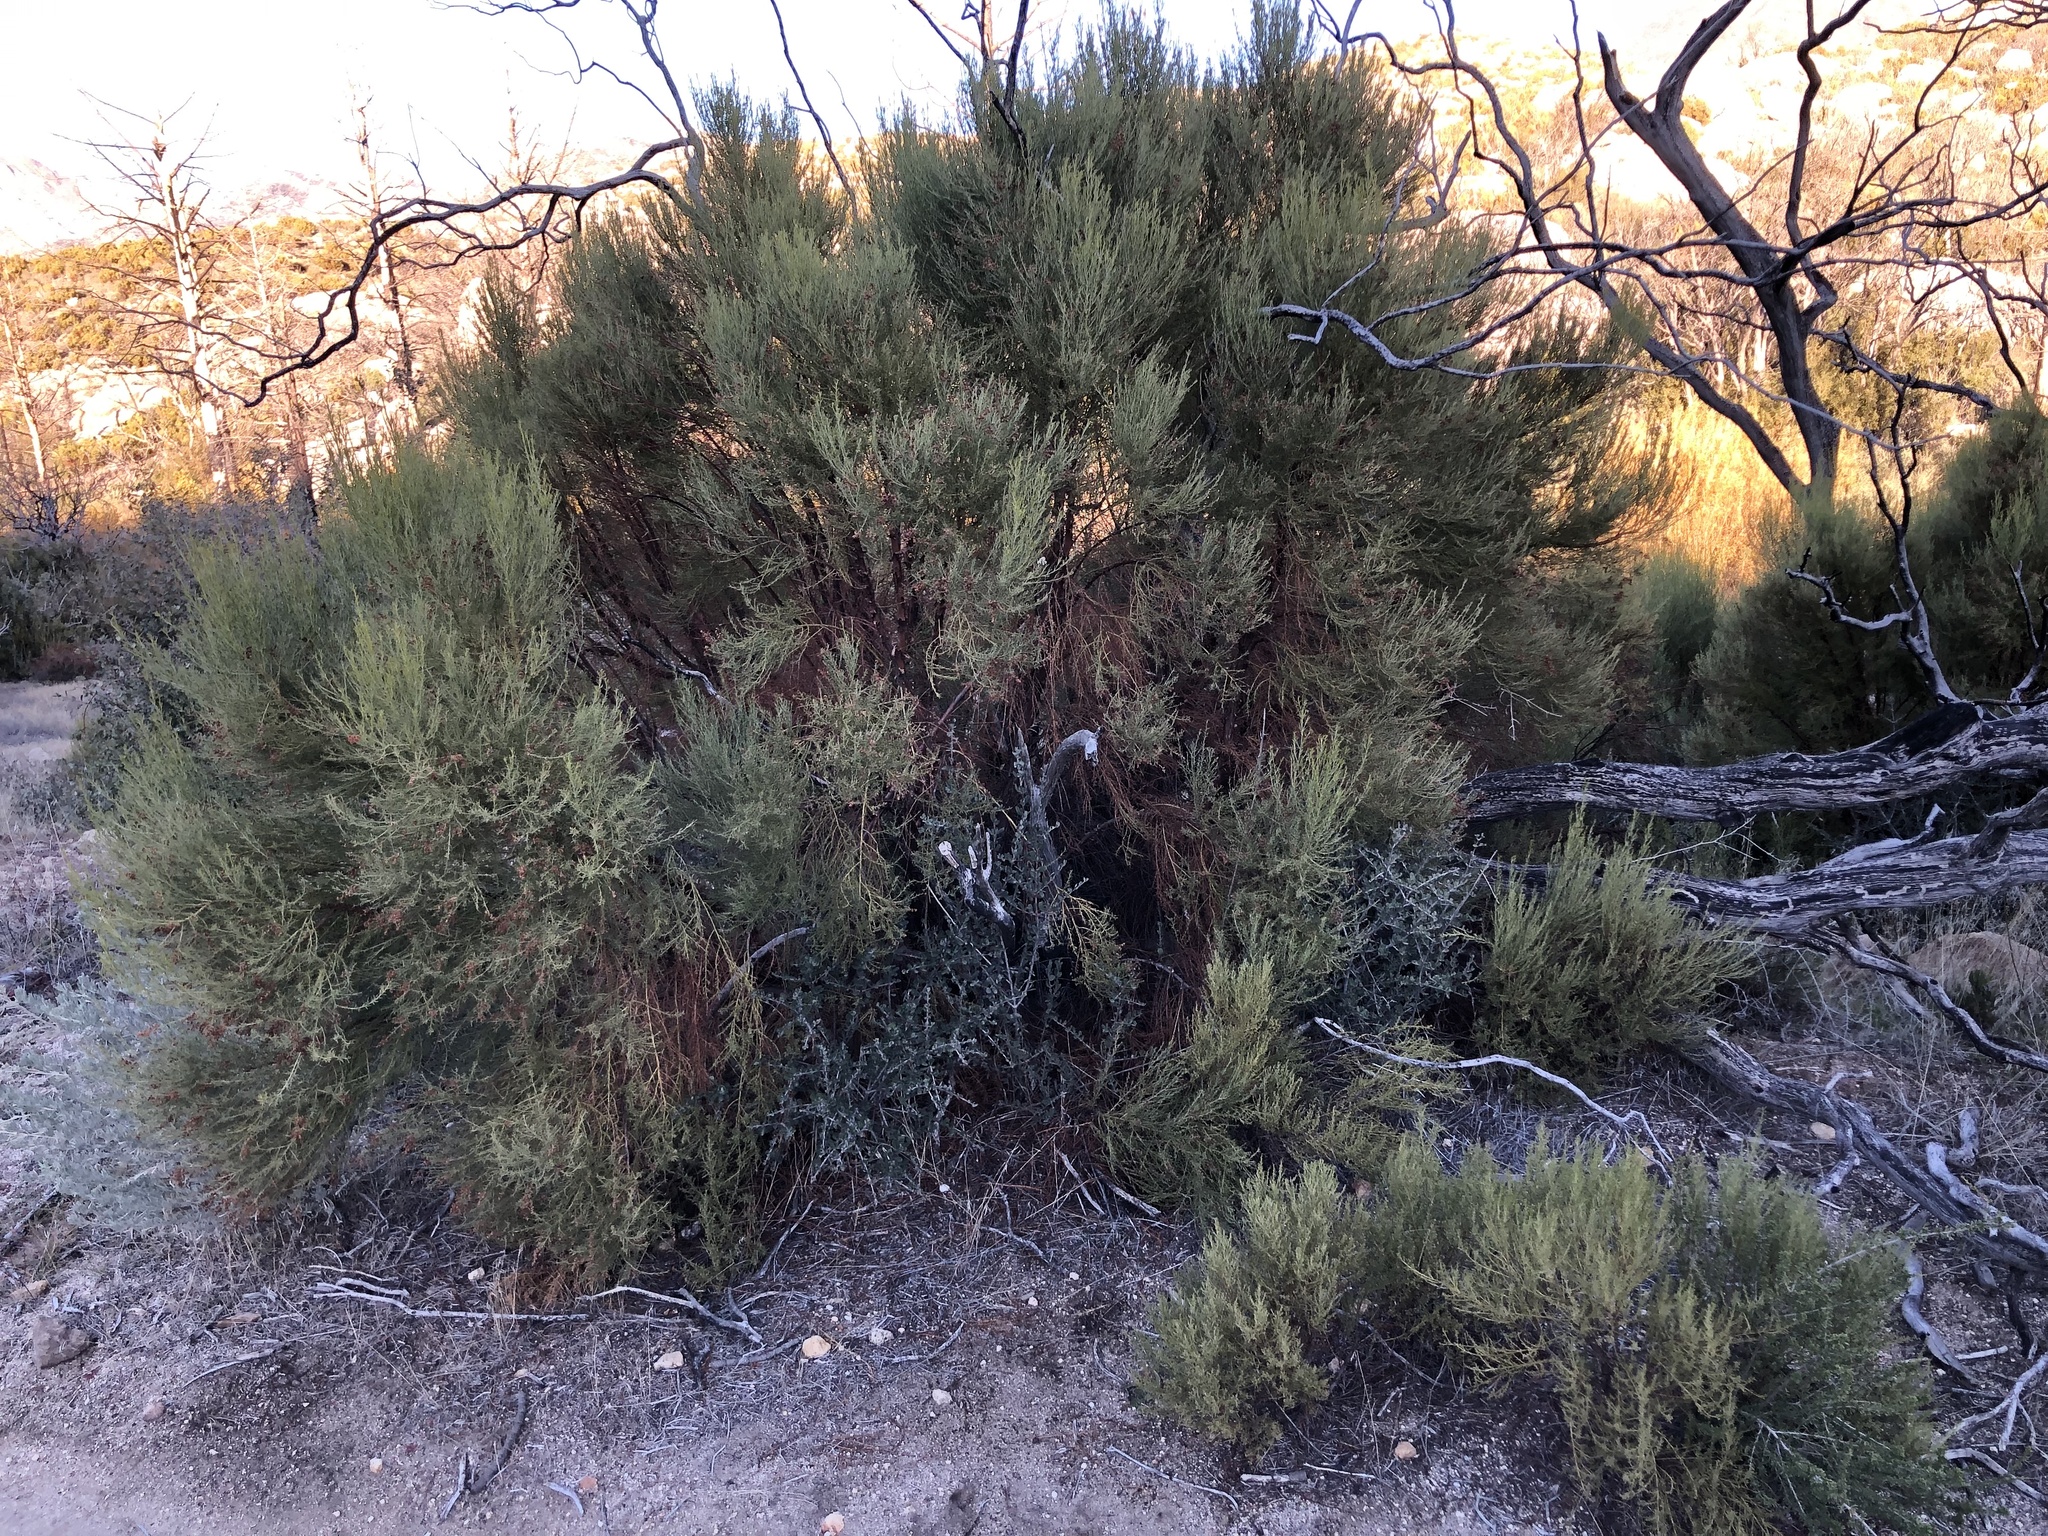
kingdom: Plantae
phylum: Tracheophyta
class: Magnoliopsida
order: Rosales
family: Rosaceae
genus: Adenostoma
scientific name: Adenostoma sparsifolium
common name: Red shank
